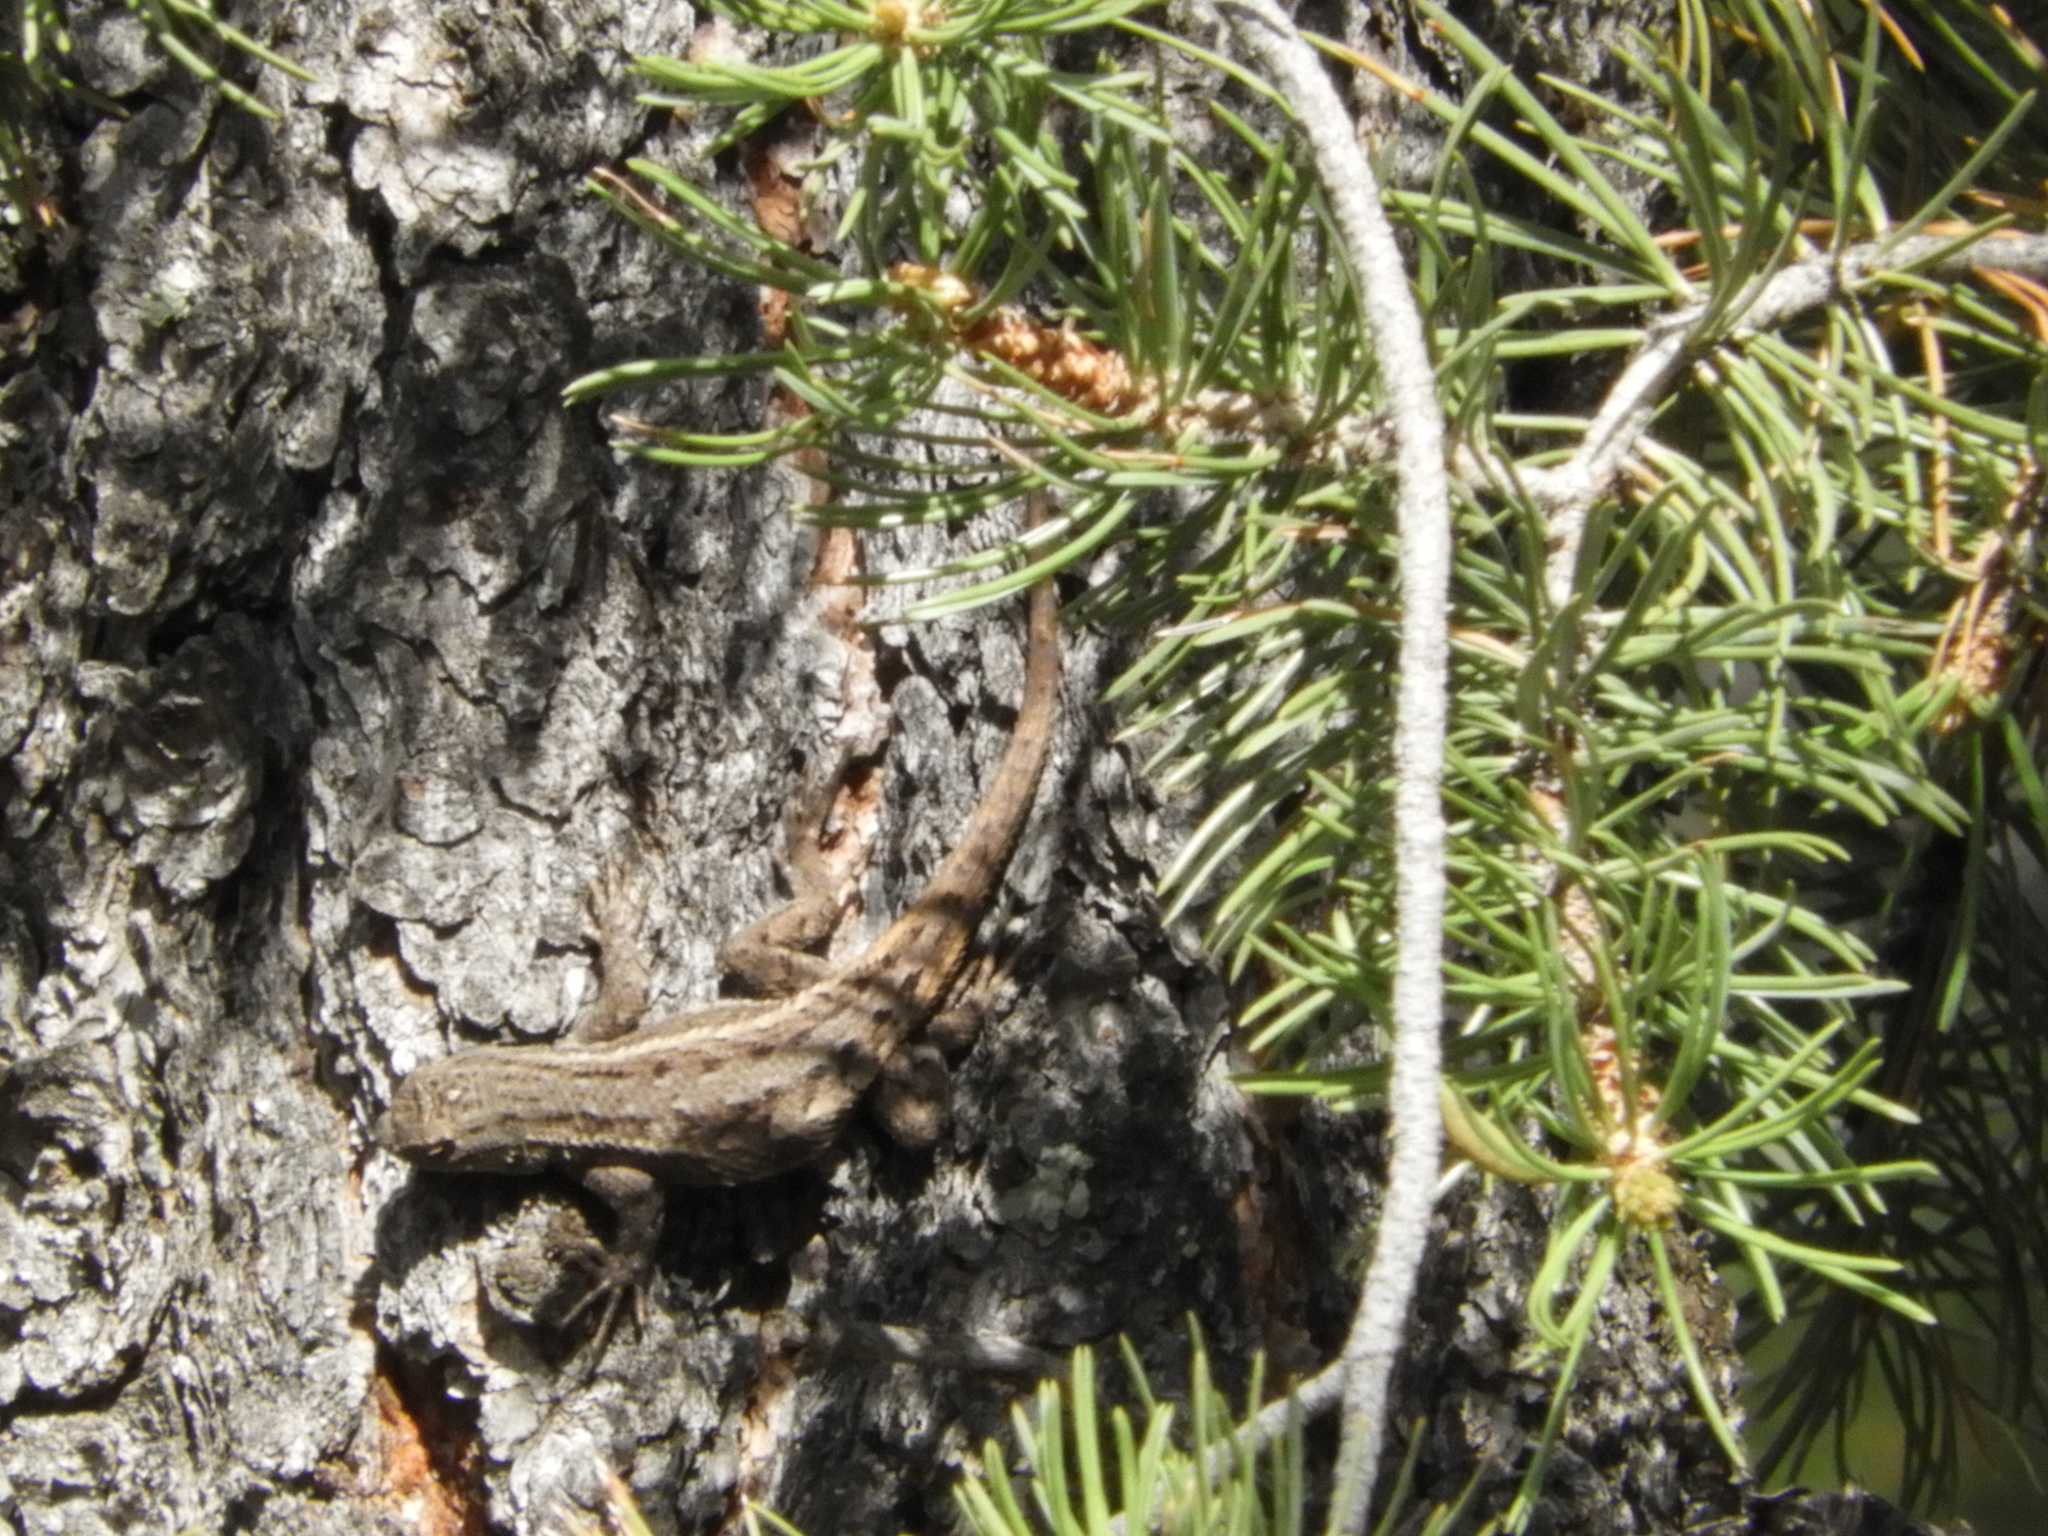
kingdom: Animalia
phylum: Chordata
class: Squamata
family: Phrynosomatidae
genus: Sceloporus
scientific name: Sceloporus cowlesi
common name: White sands prairie lizard
